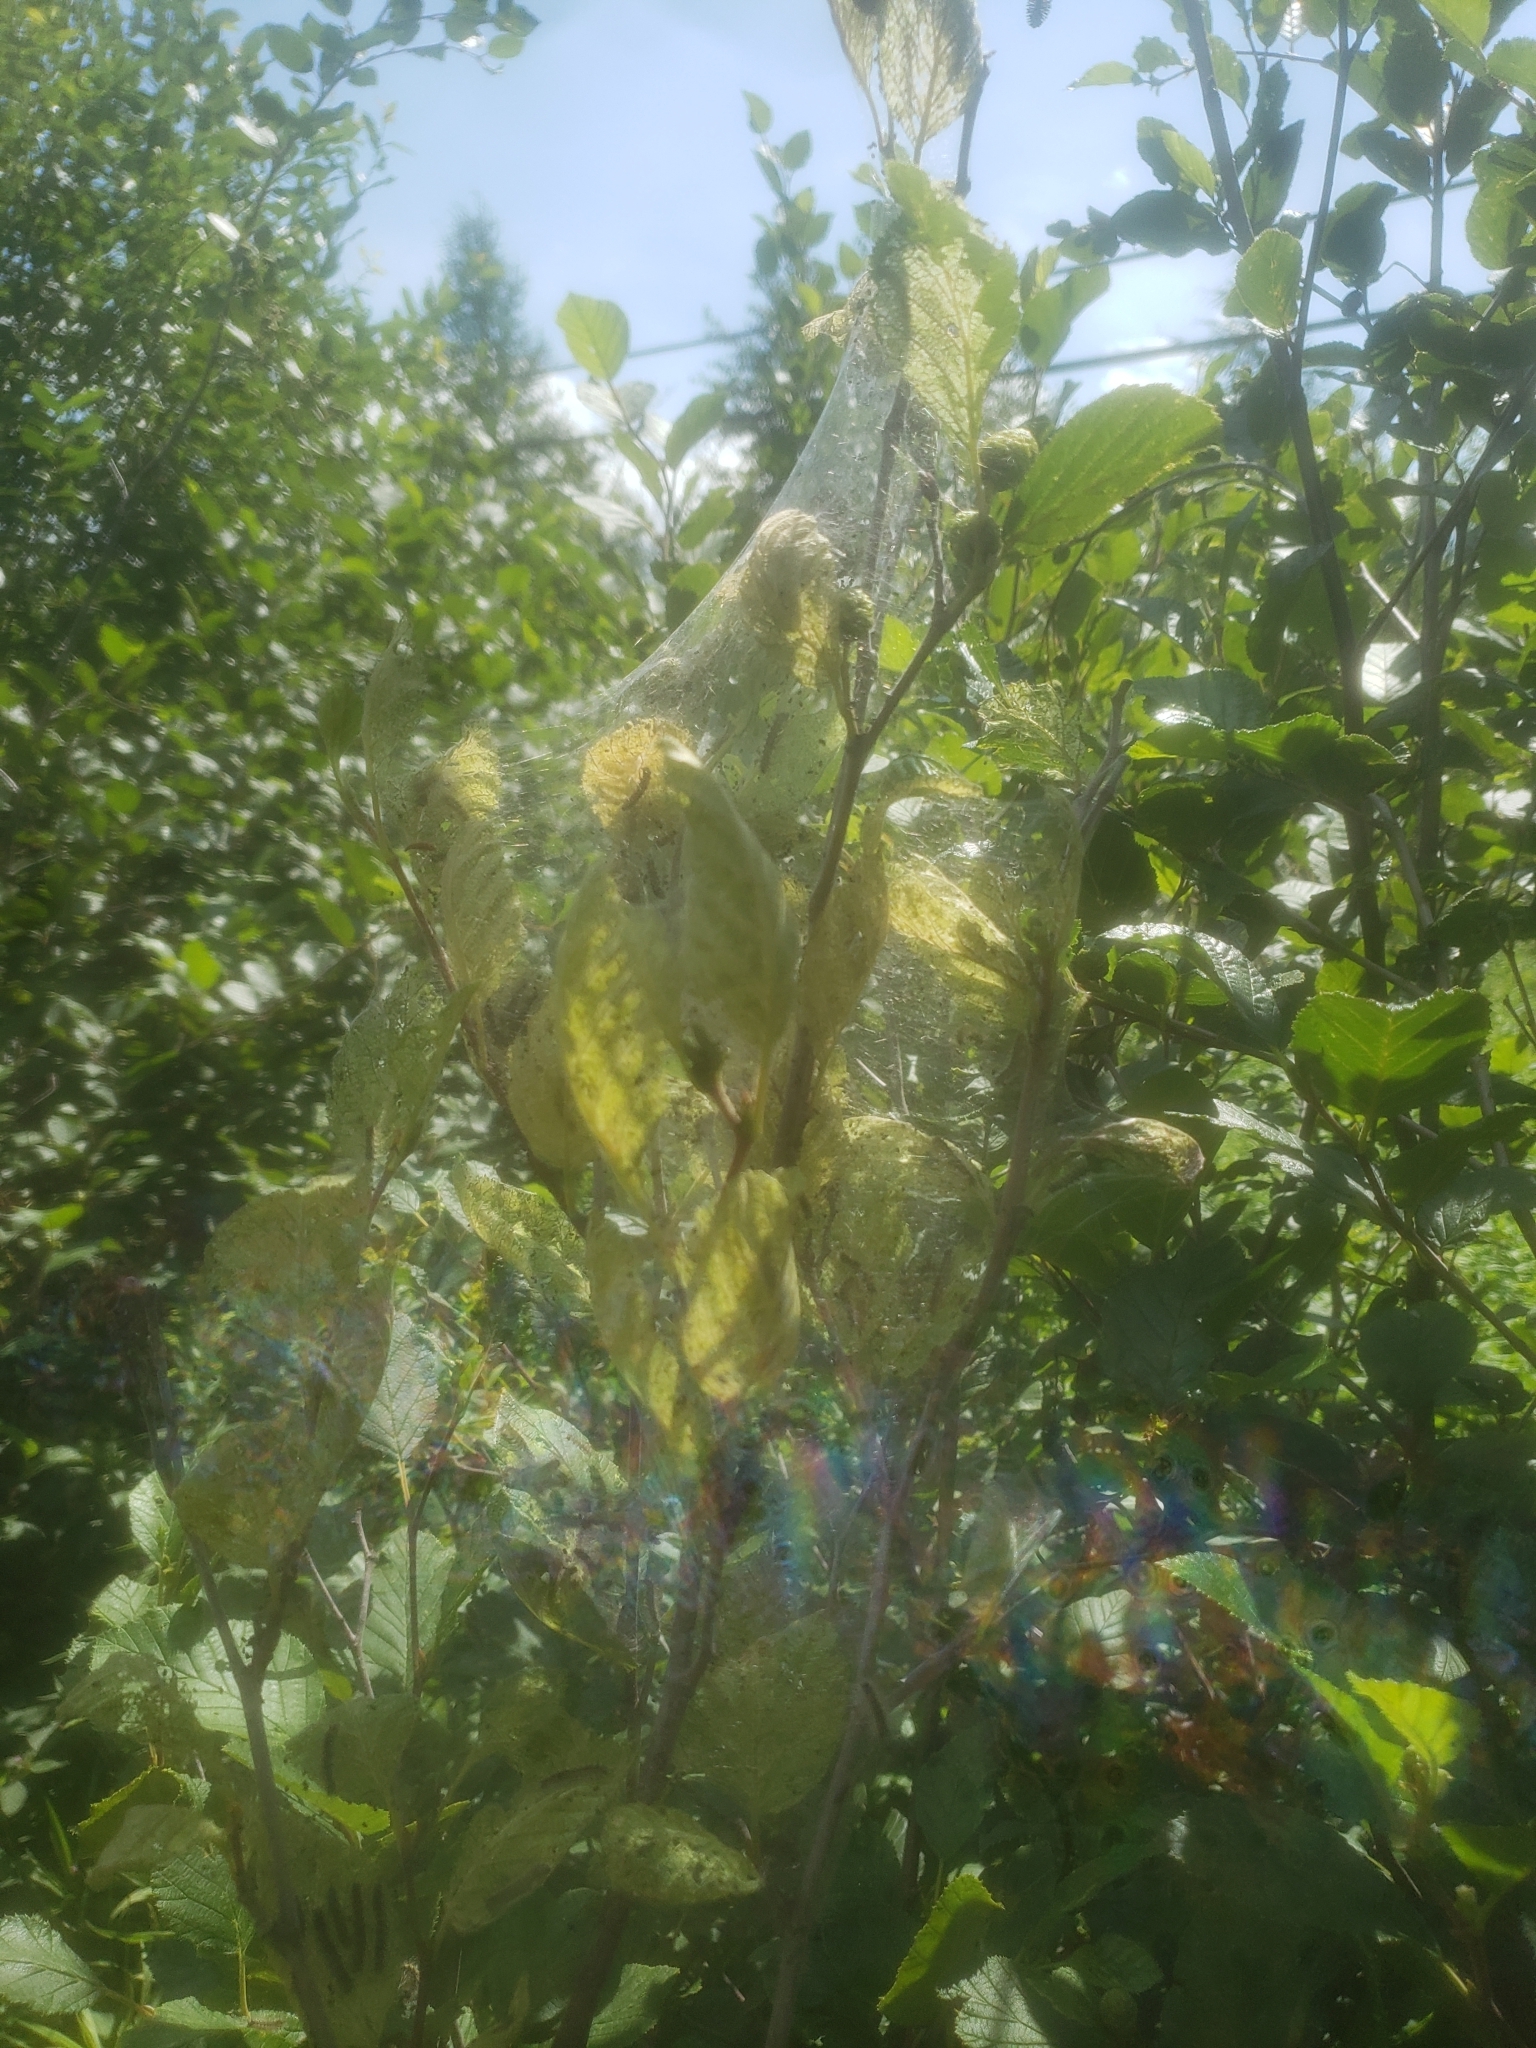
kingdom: Animalia
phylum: Arthropoda
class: Insecta
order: Lepidoptera
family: Erebidae
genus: Hyphantria
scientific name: Hyphantria cunea
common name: American white moth
